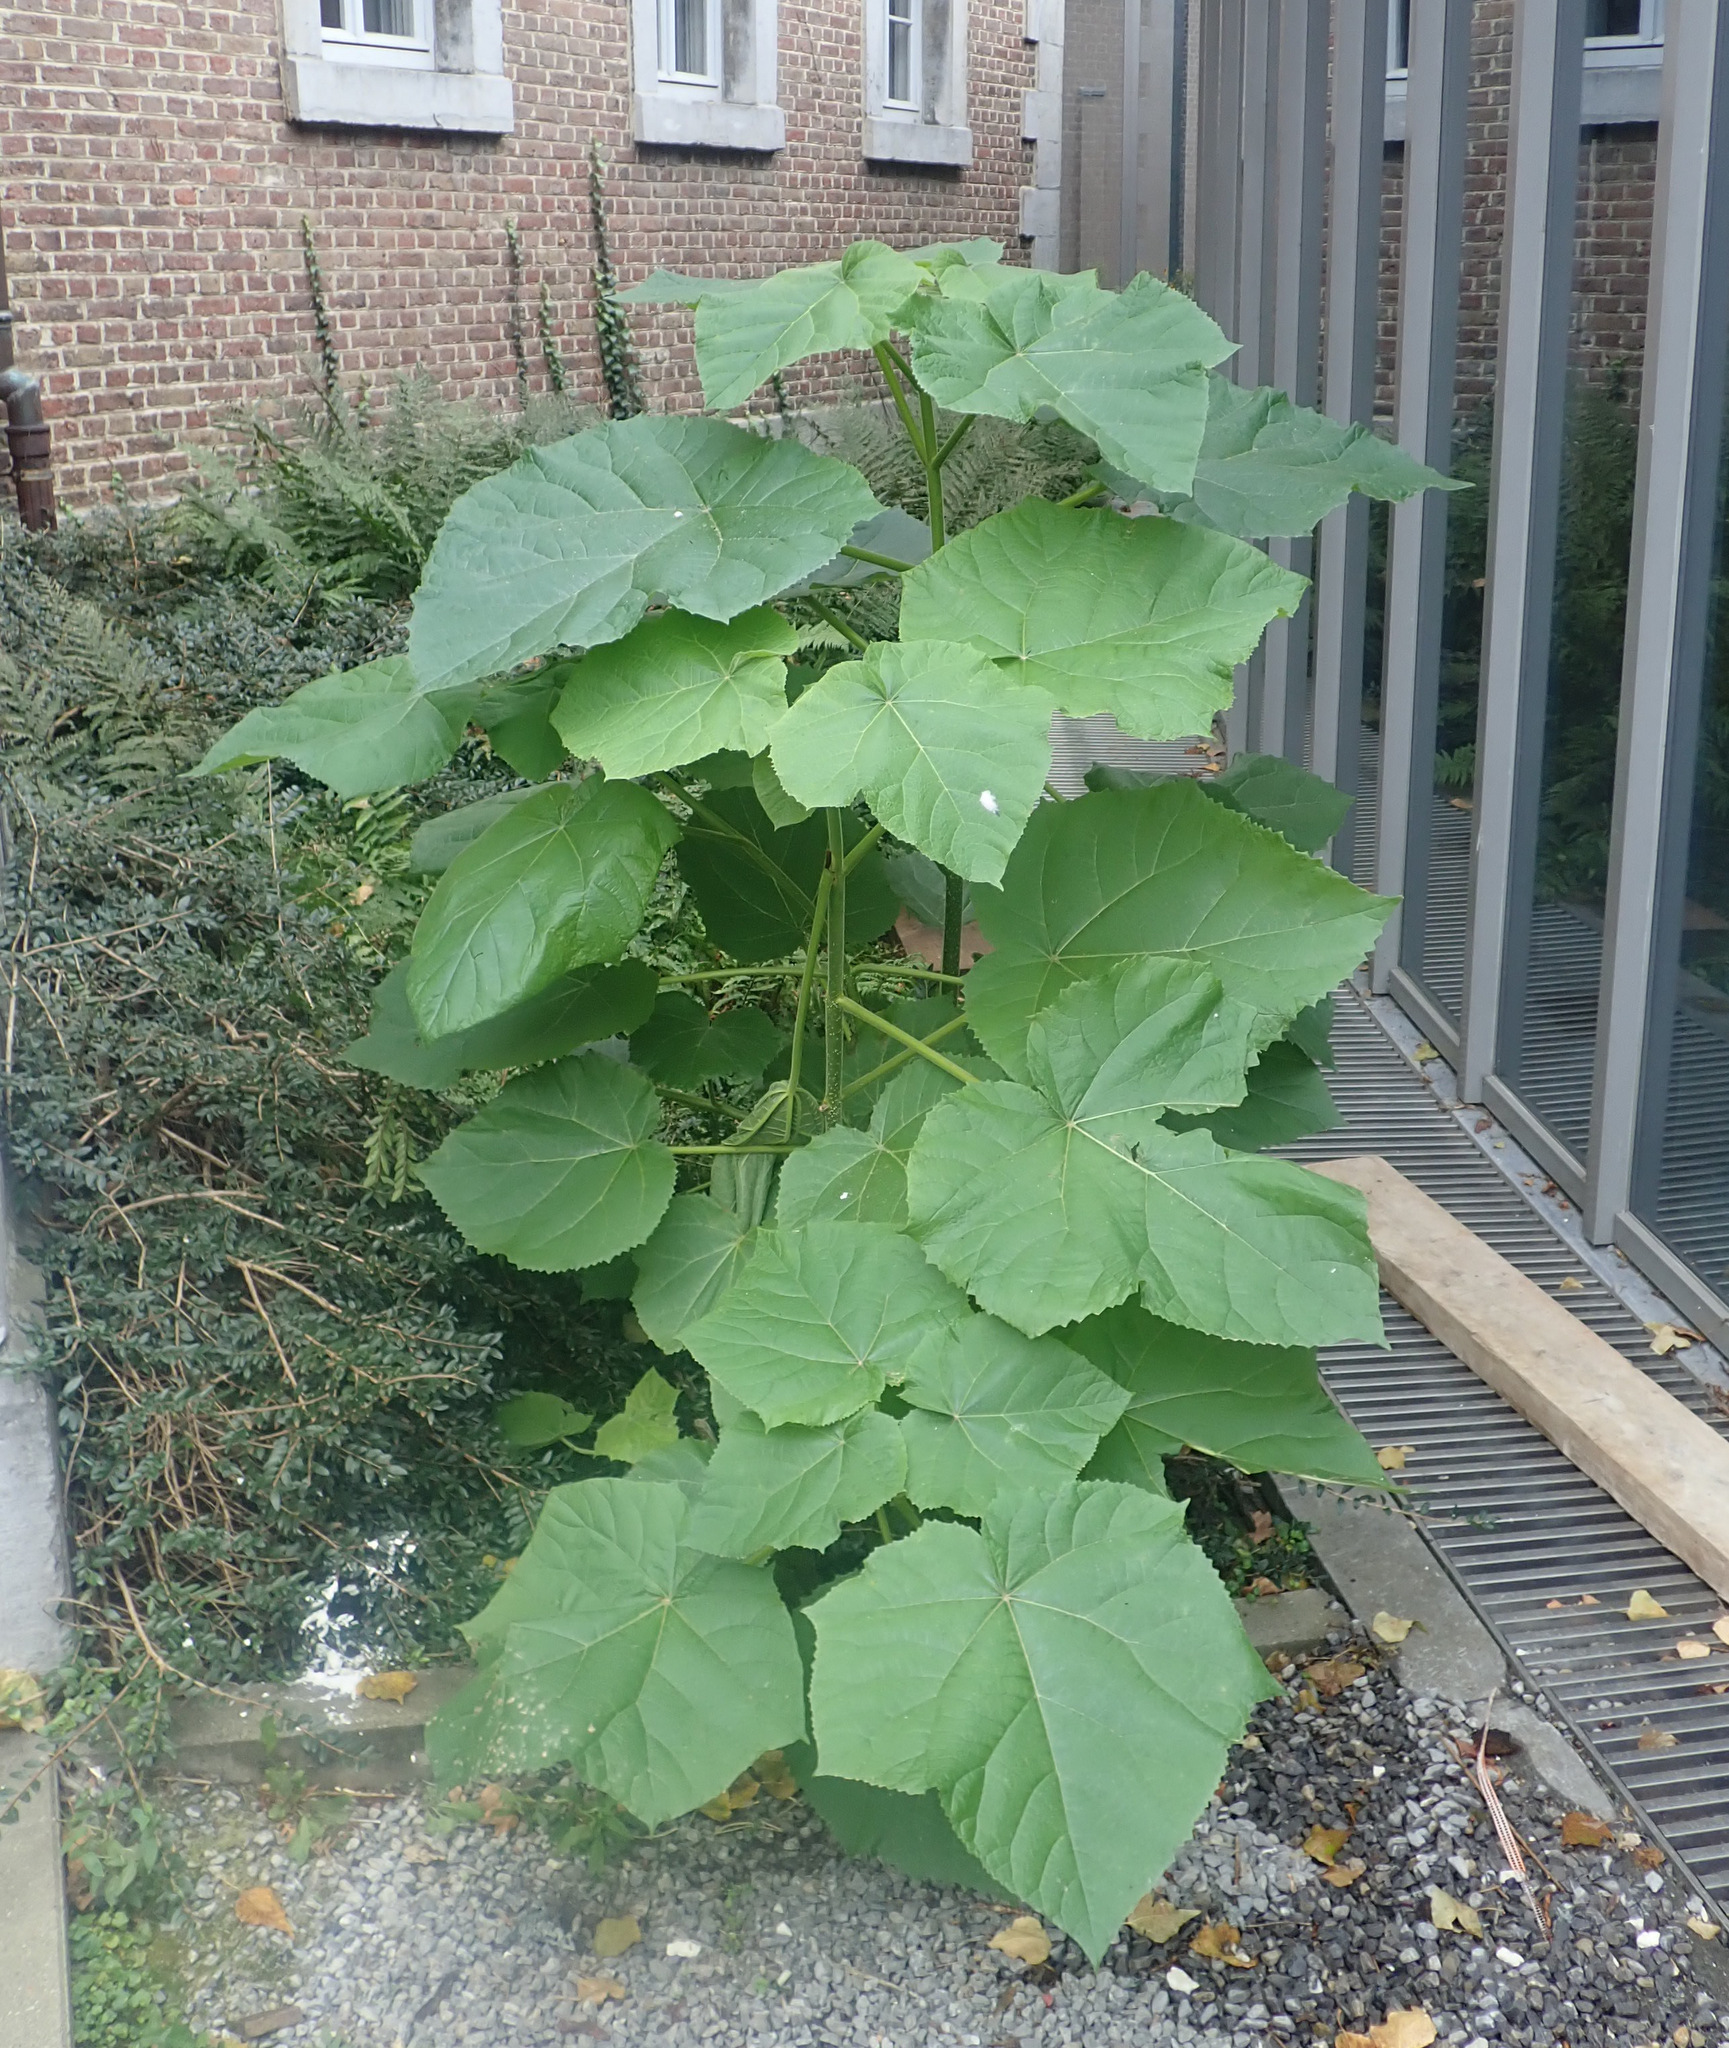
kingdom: Plantae
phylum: Tracheophyta
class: Magnoliopsida
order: Lamiales
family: Paulowniaceae
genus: Paulownia
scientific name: Paulownia tomentosa
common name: Foxglove-tree
